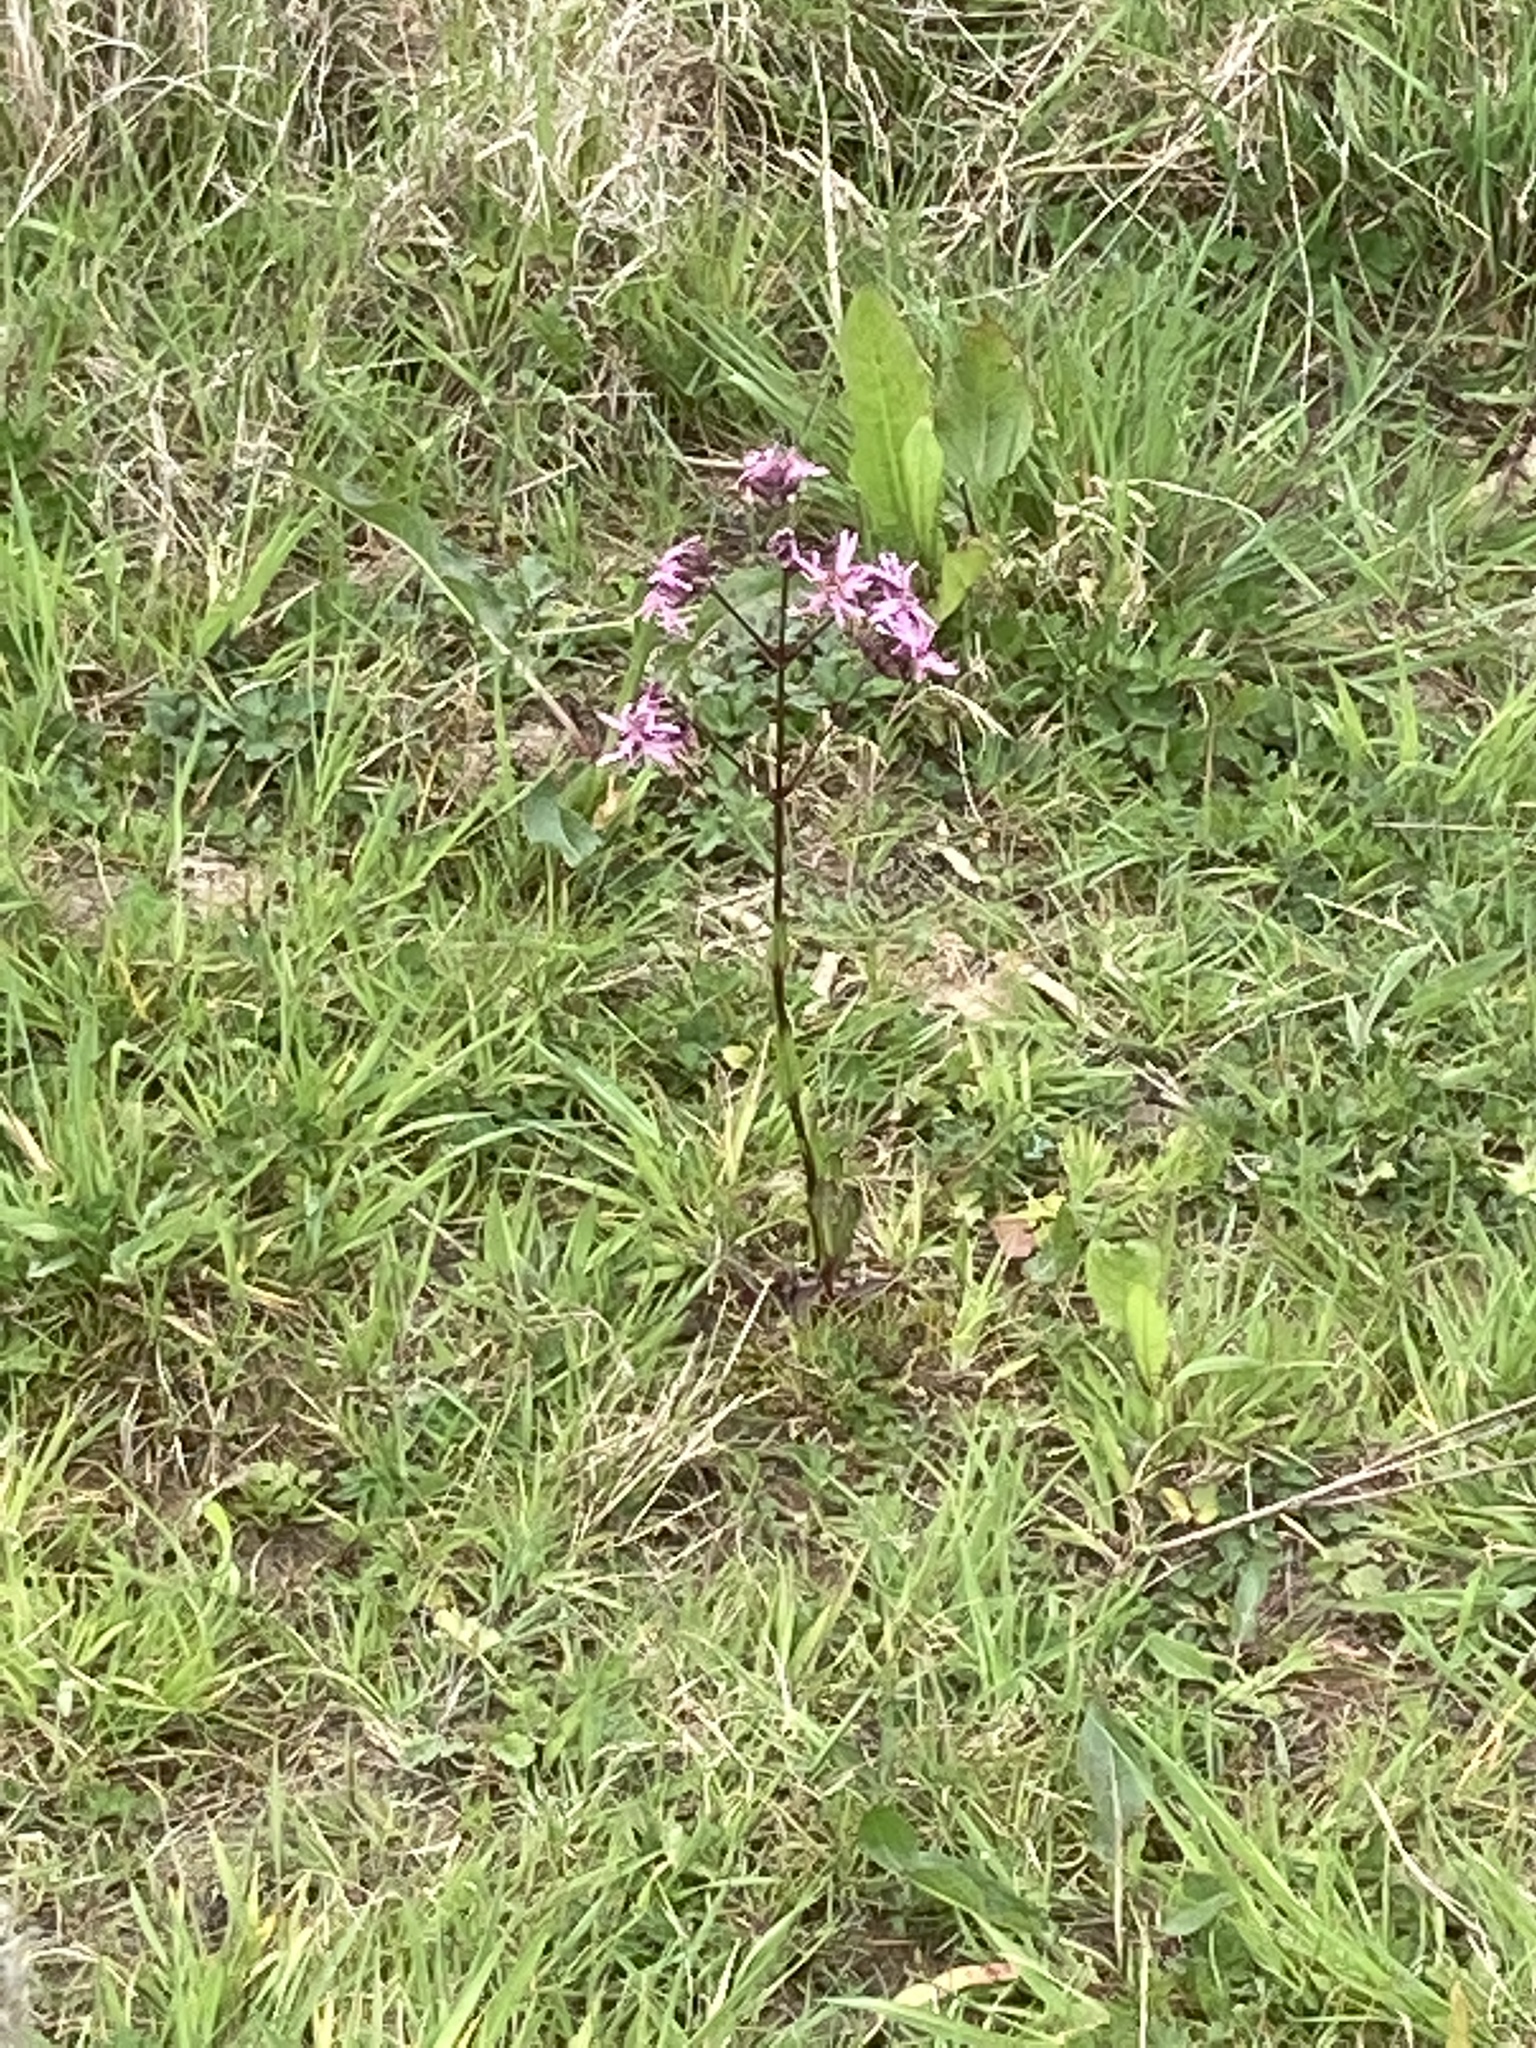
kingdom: Plantae
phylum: Tracheophyta
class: Magnoliopsida
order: Caryophyllales
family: Caryophyllaceae
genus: Silene
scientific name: Silene flos-cuculi
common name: Ragged-robin
